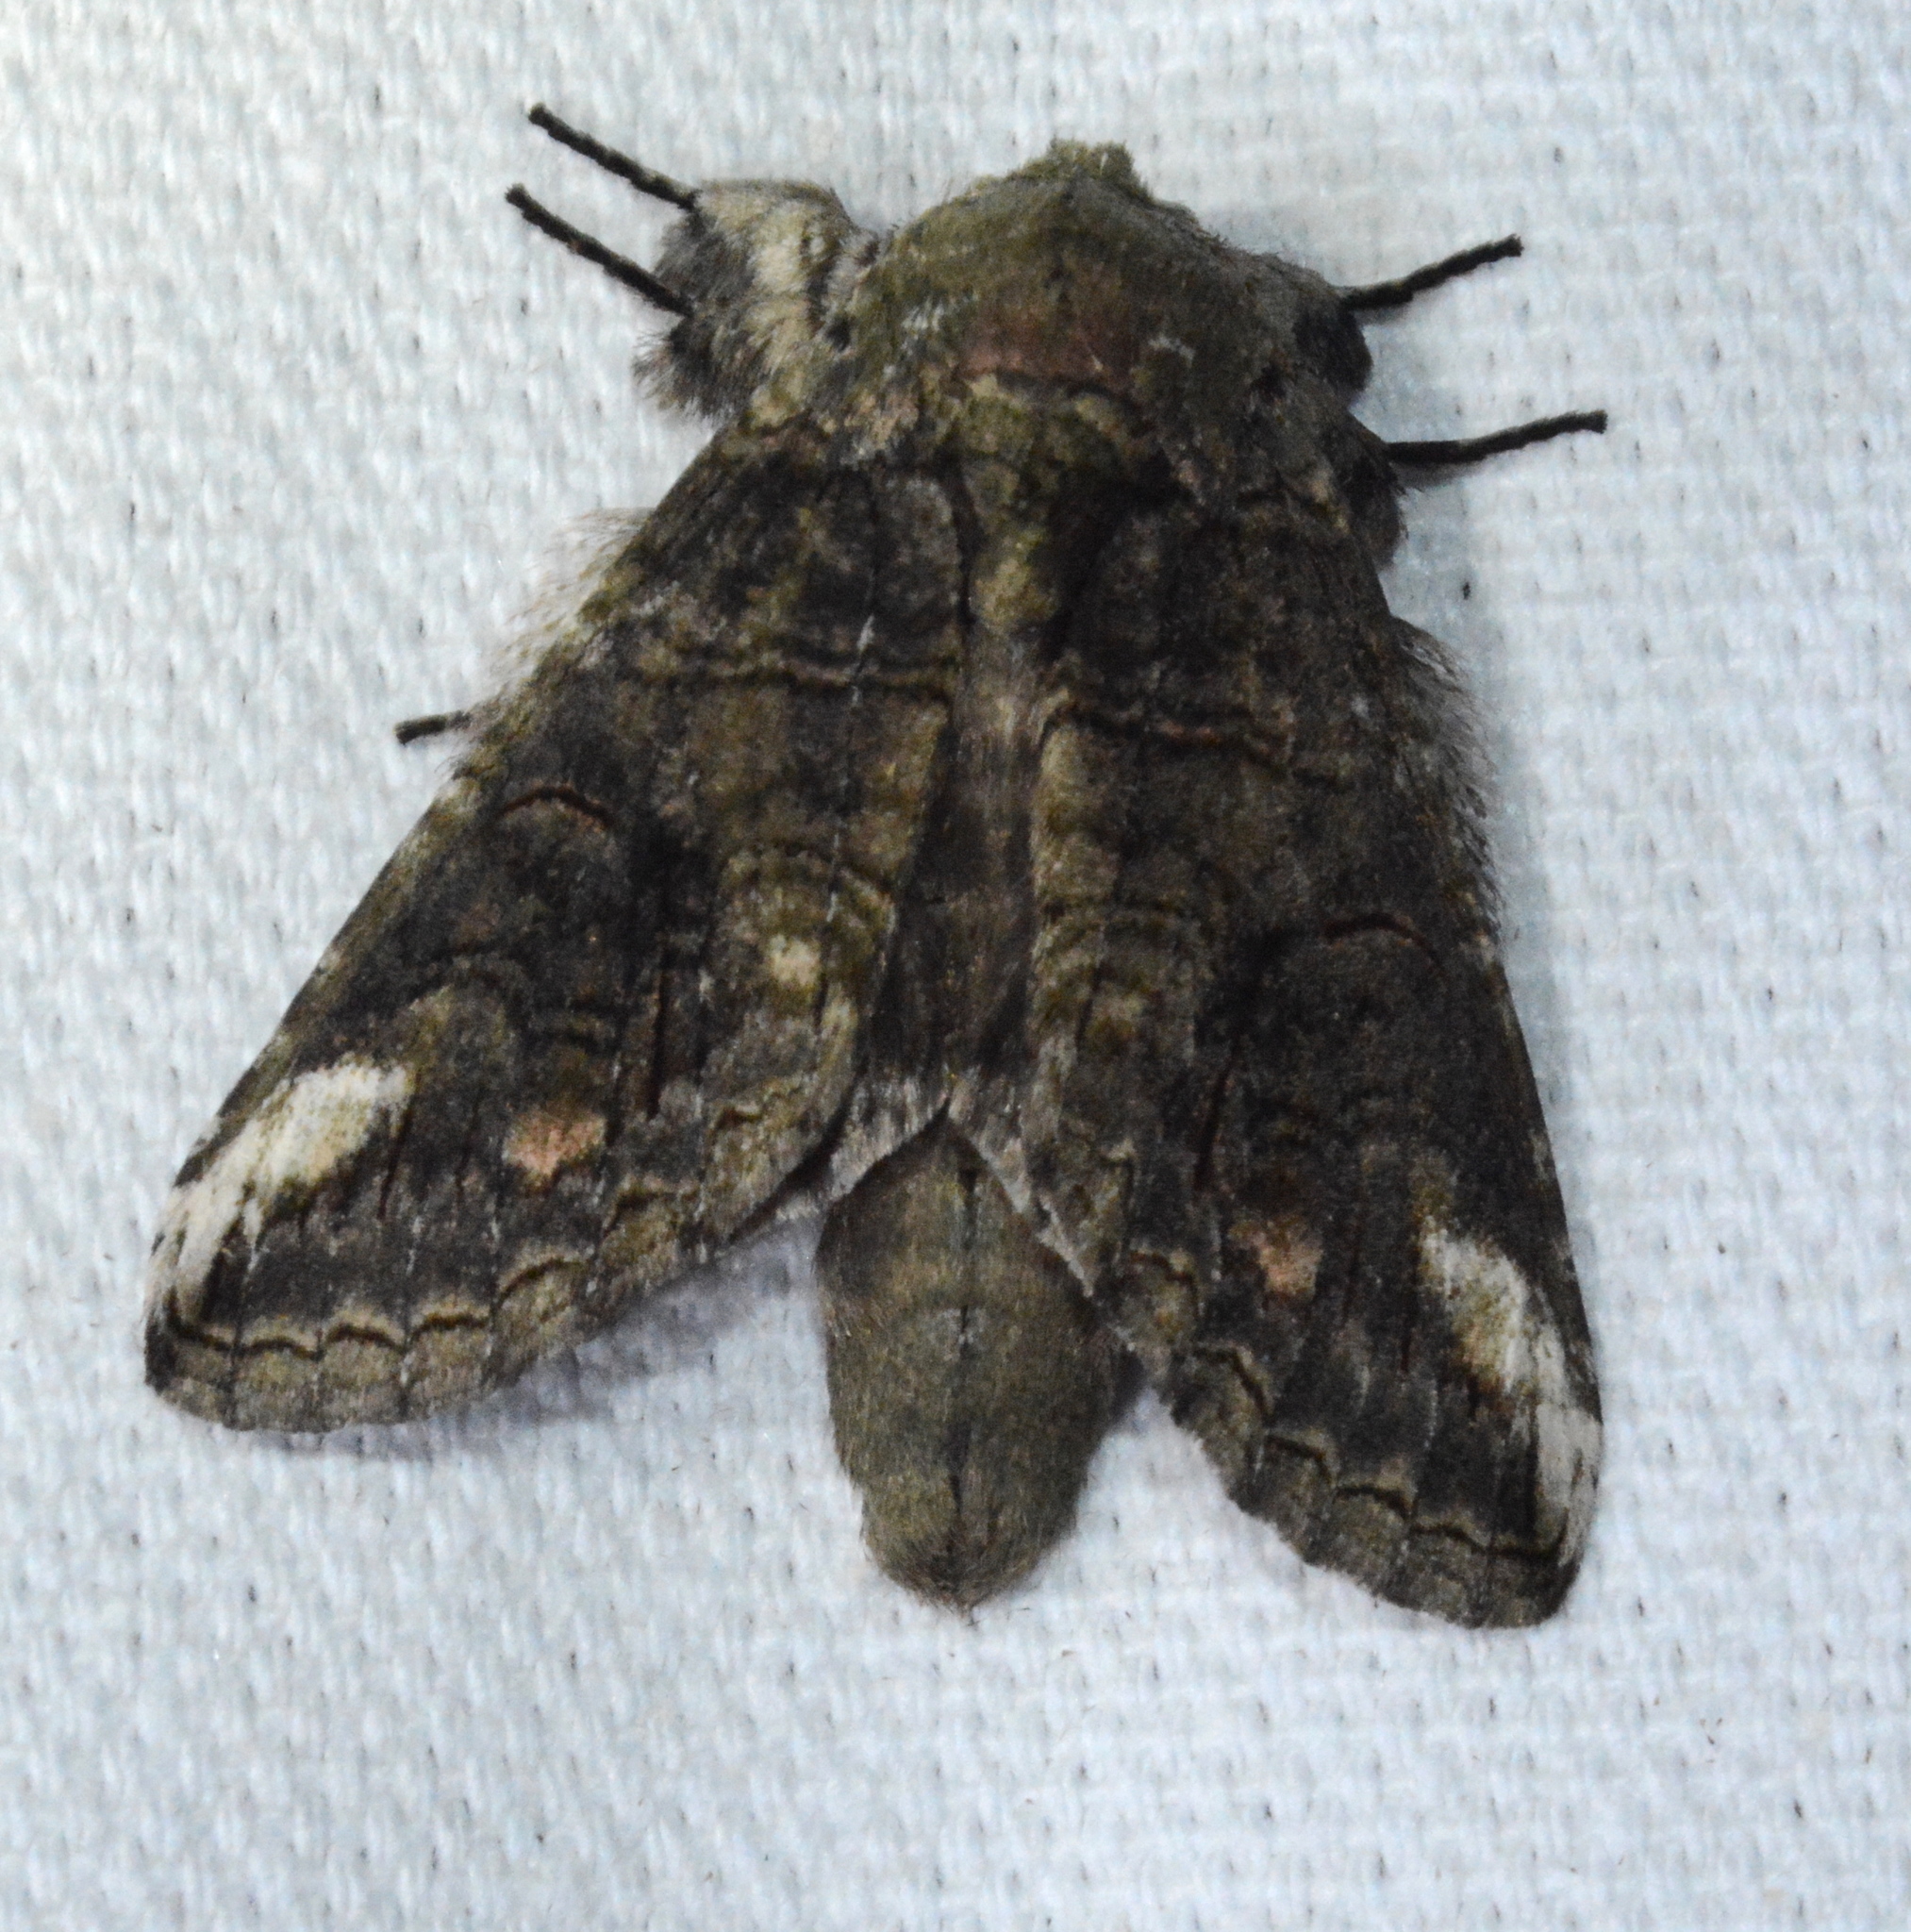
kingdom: Animalia
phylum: Arthropoda
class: Insecta
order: Lepidoptera
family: Notodontidae
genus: Heterocampa
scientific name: Heterocampa obliqua
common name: Oblique heterocampa
